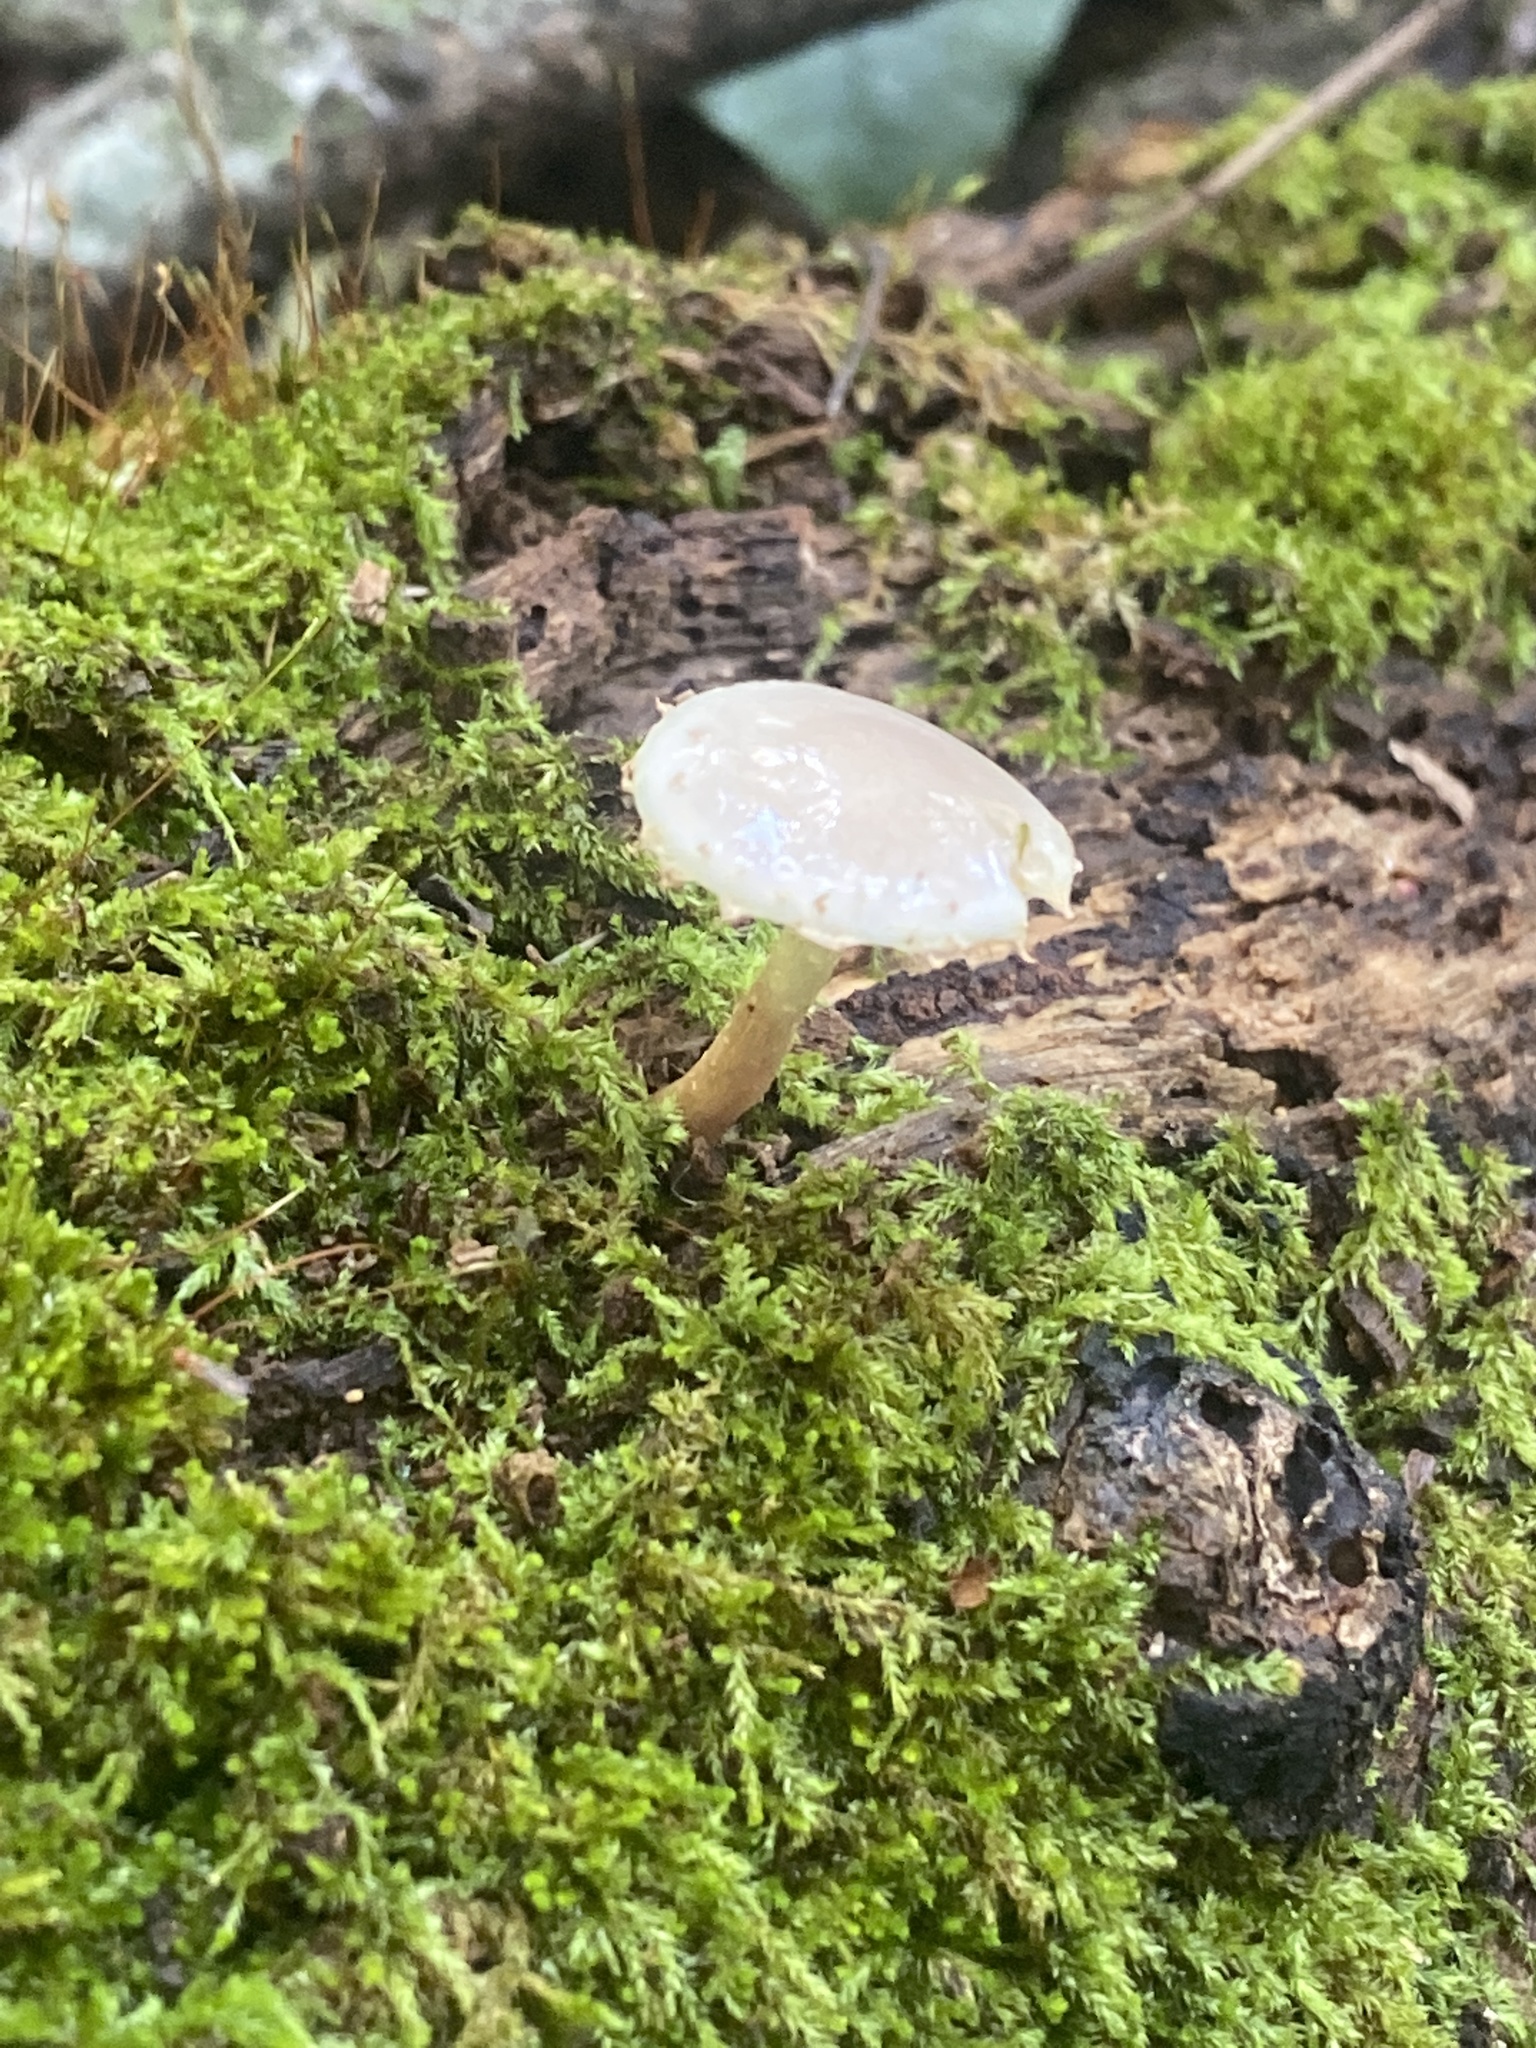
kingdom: Fungi
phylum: Basidiomycota
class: Agaricomycetes
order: Agaricales
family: Strophariaceae
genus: Pholiota
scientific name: Pholiota polychroa
